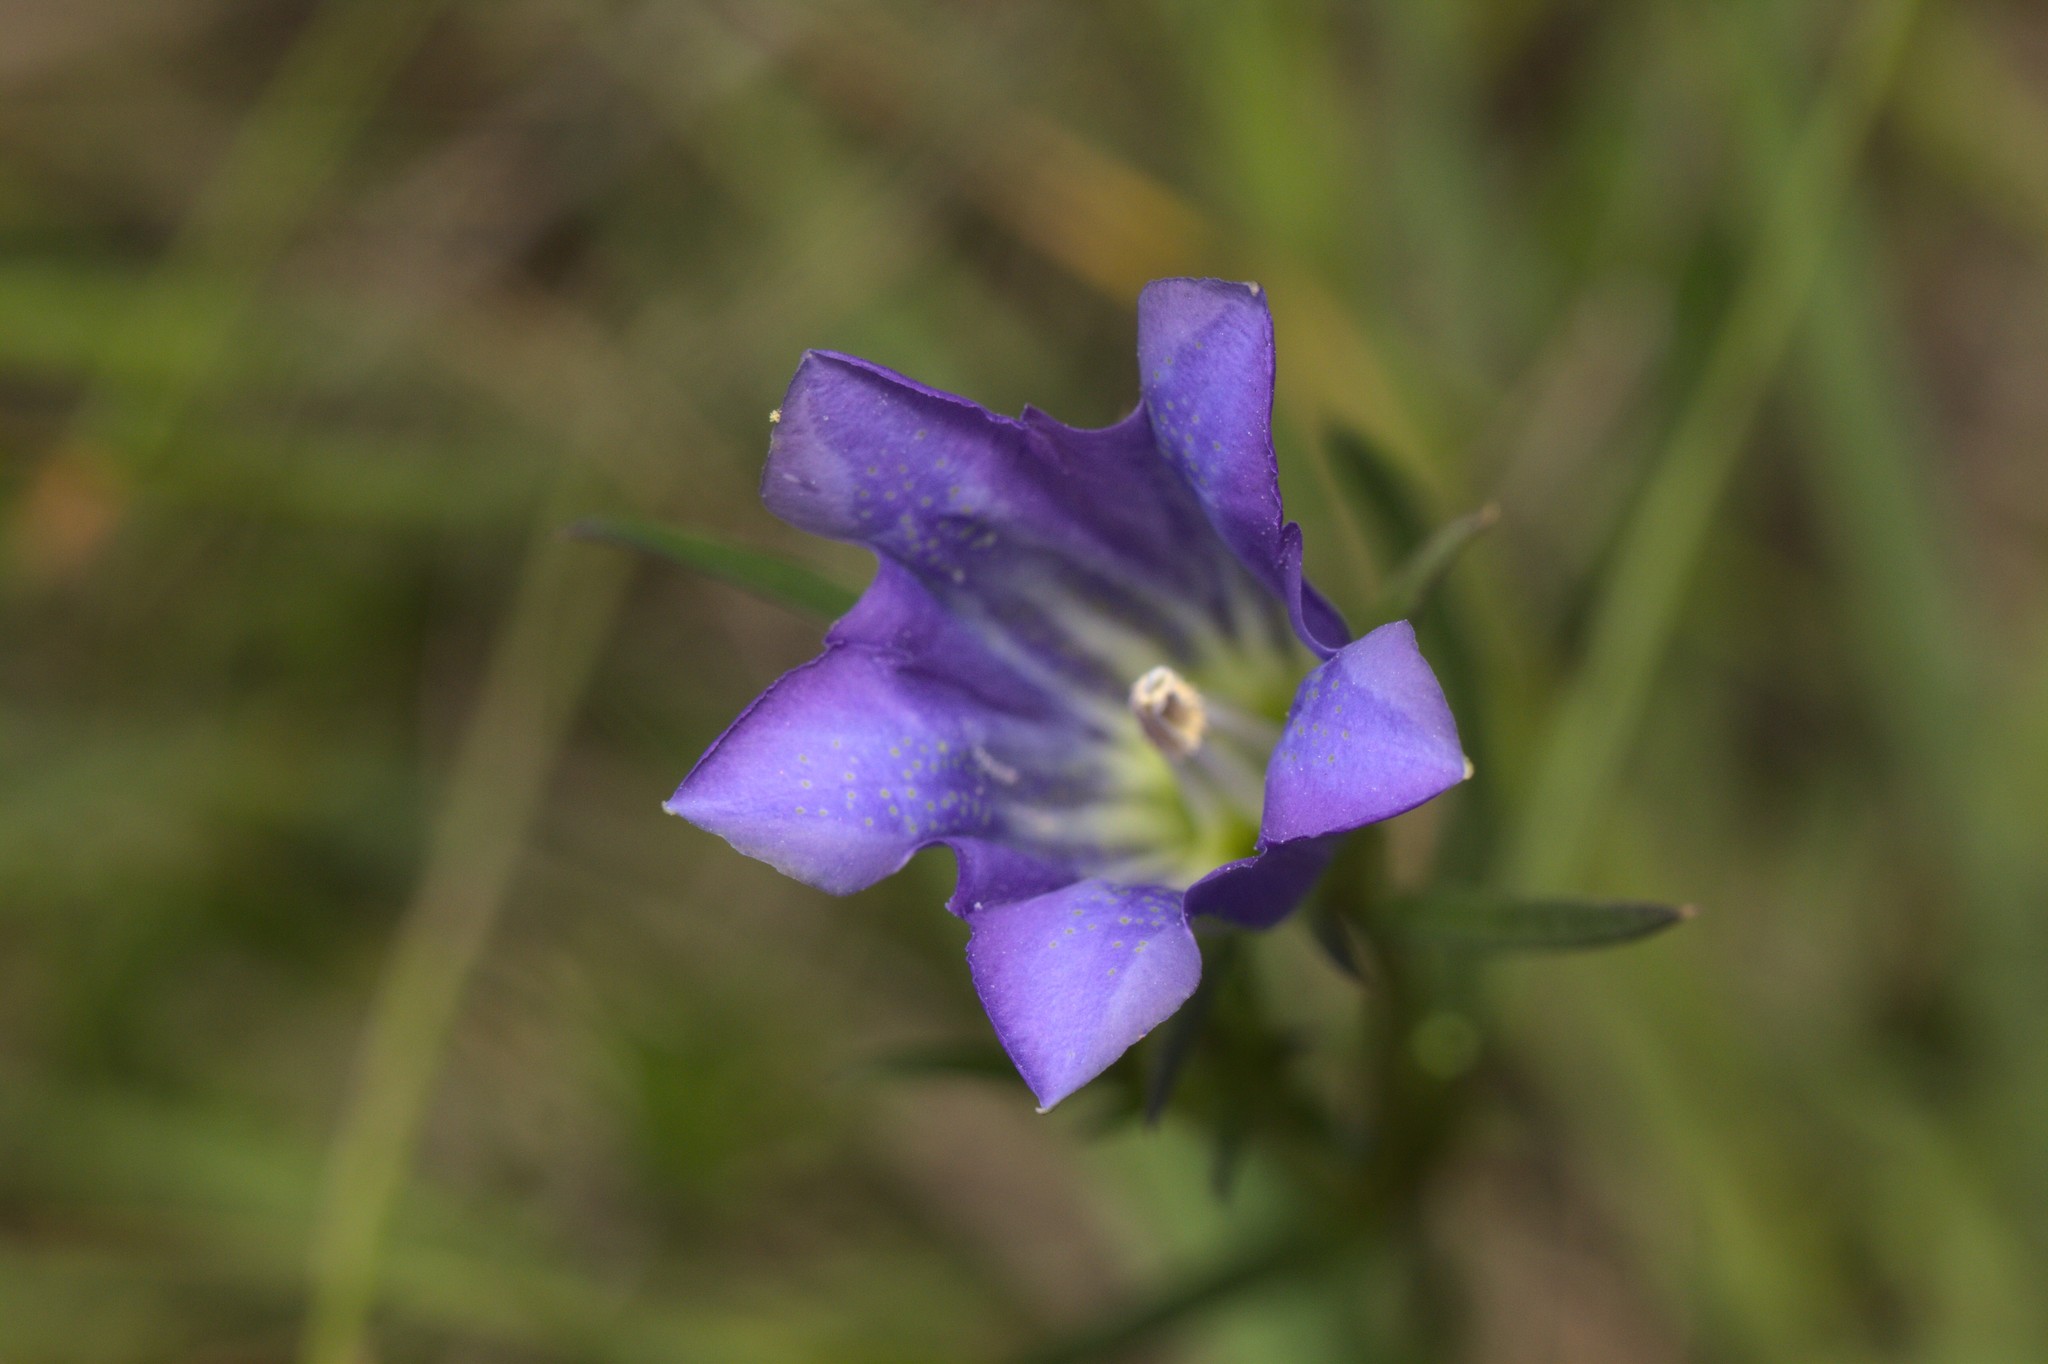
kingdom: Plantae
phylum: Tracheophyta
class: Magnoliopsida
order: Gentianales
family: Gentianaceae
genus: Gentiana
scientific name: Gentiana pneumonanthe
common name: Marsh gentian
